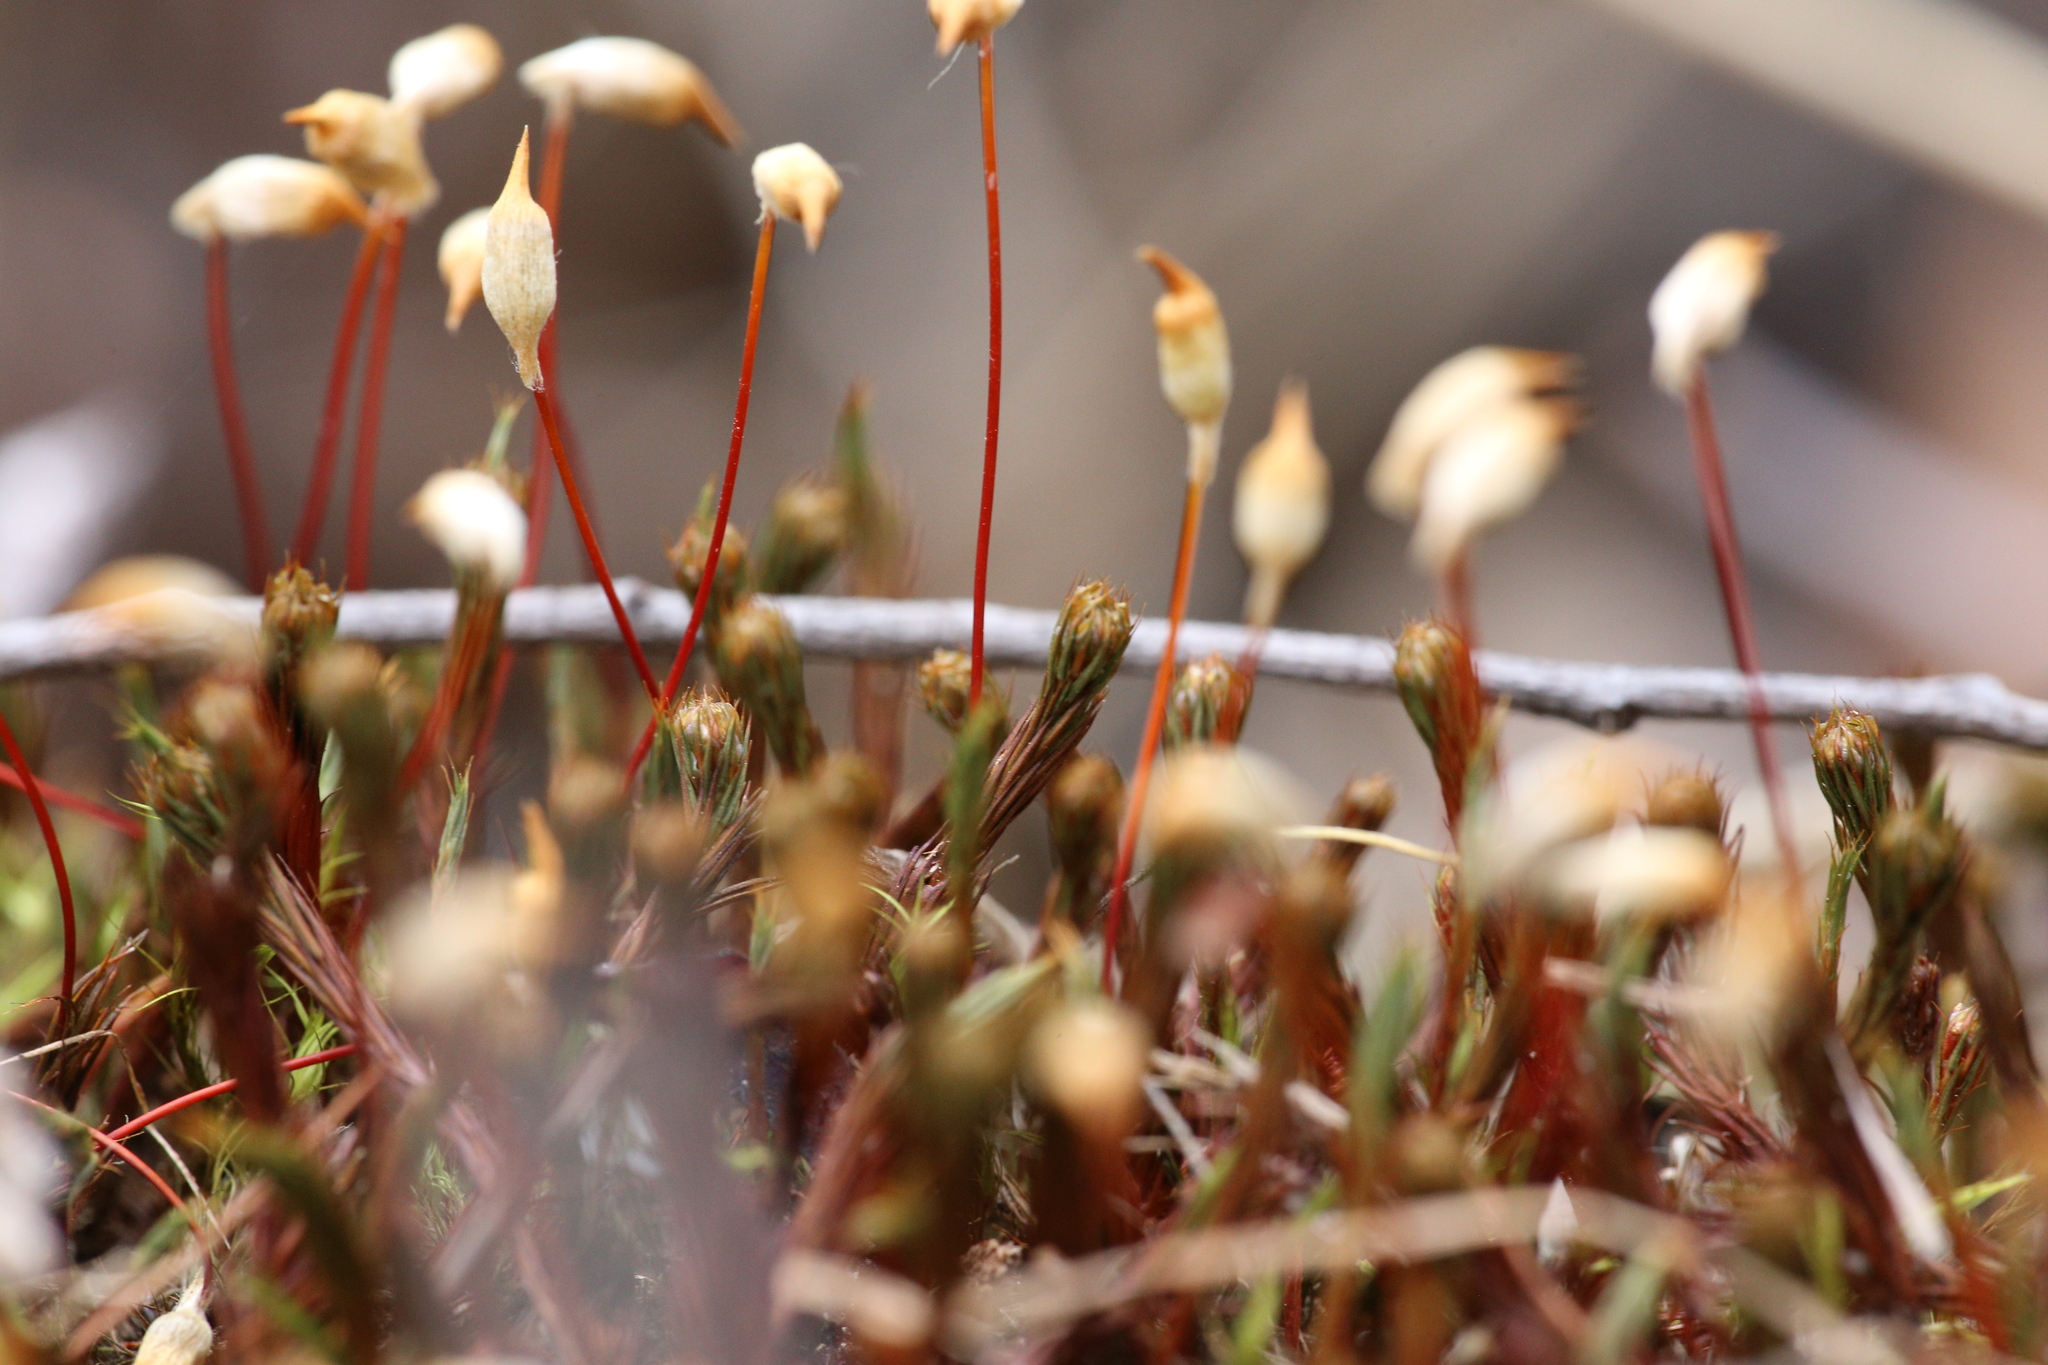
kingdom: Plantae
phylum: Bryophyta
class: Polytrichopsida
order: Polytrichales
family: Polytrichaceae
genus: Polytrichum
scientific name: Polytrichum juniperinum
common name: Juniper haircap moss
